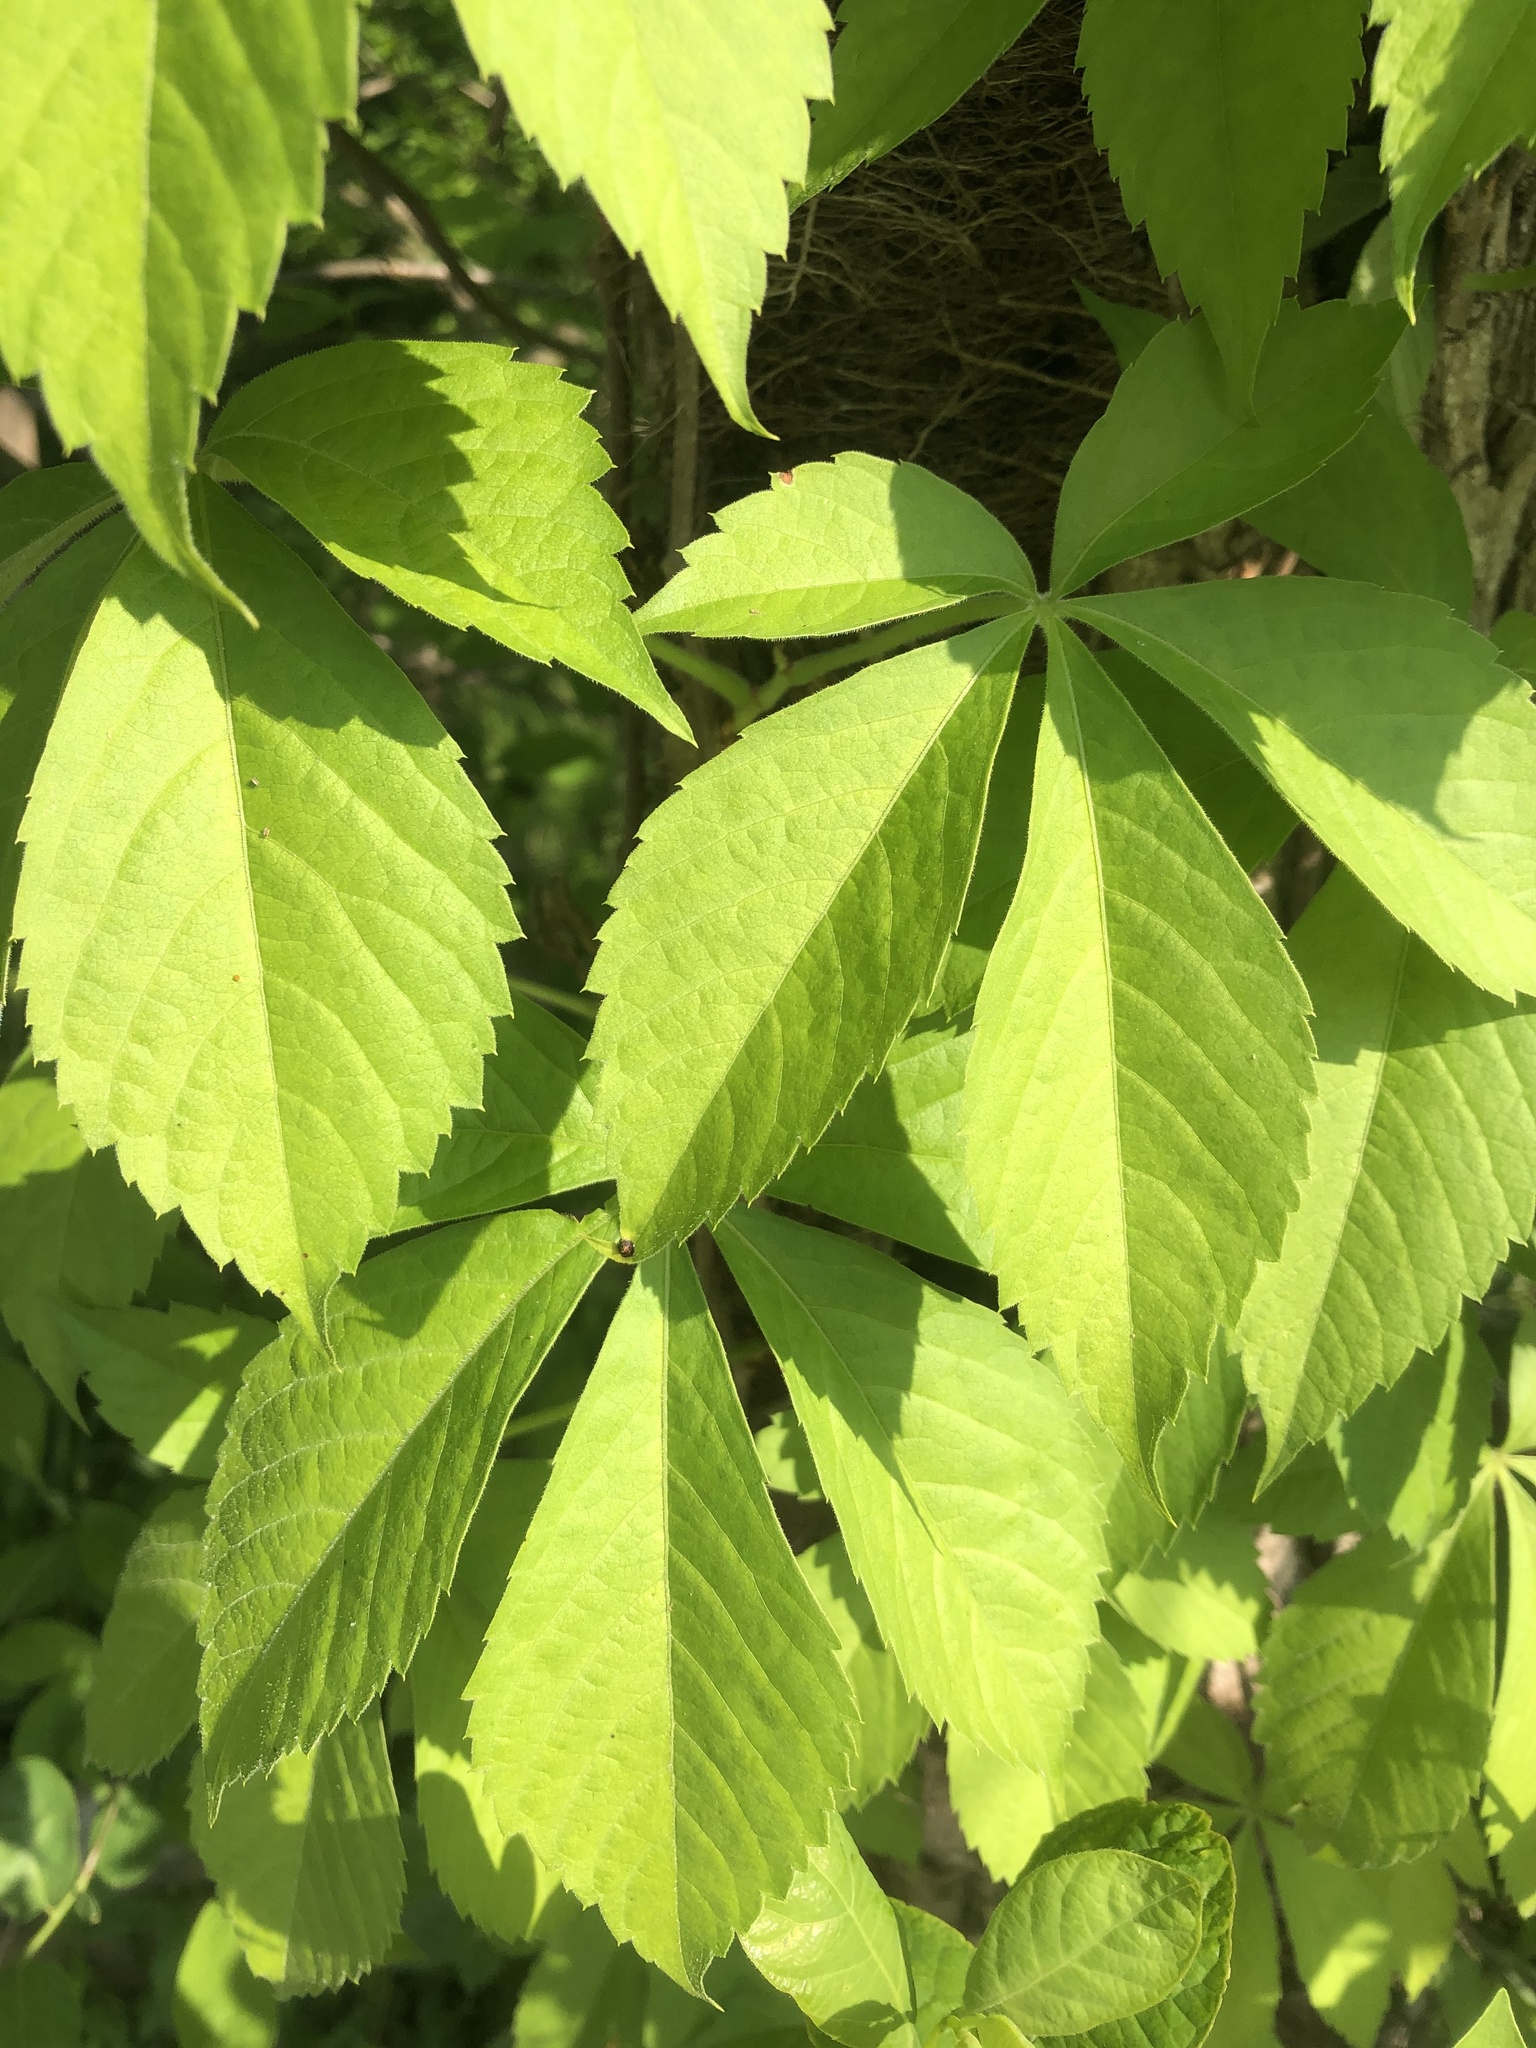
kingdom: Plantae
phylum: Tracheophyta
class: Magnoliopsida
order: Vitales
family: Vitaceae
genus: Parthenocissus
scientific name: Parthenocissus quinquefolia
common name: Virginia-creeper
